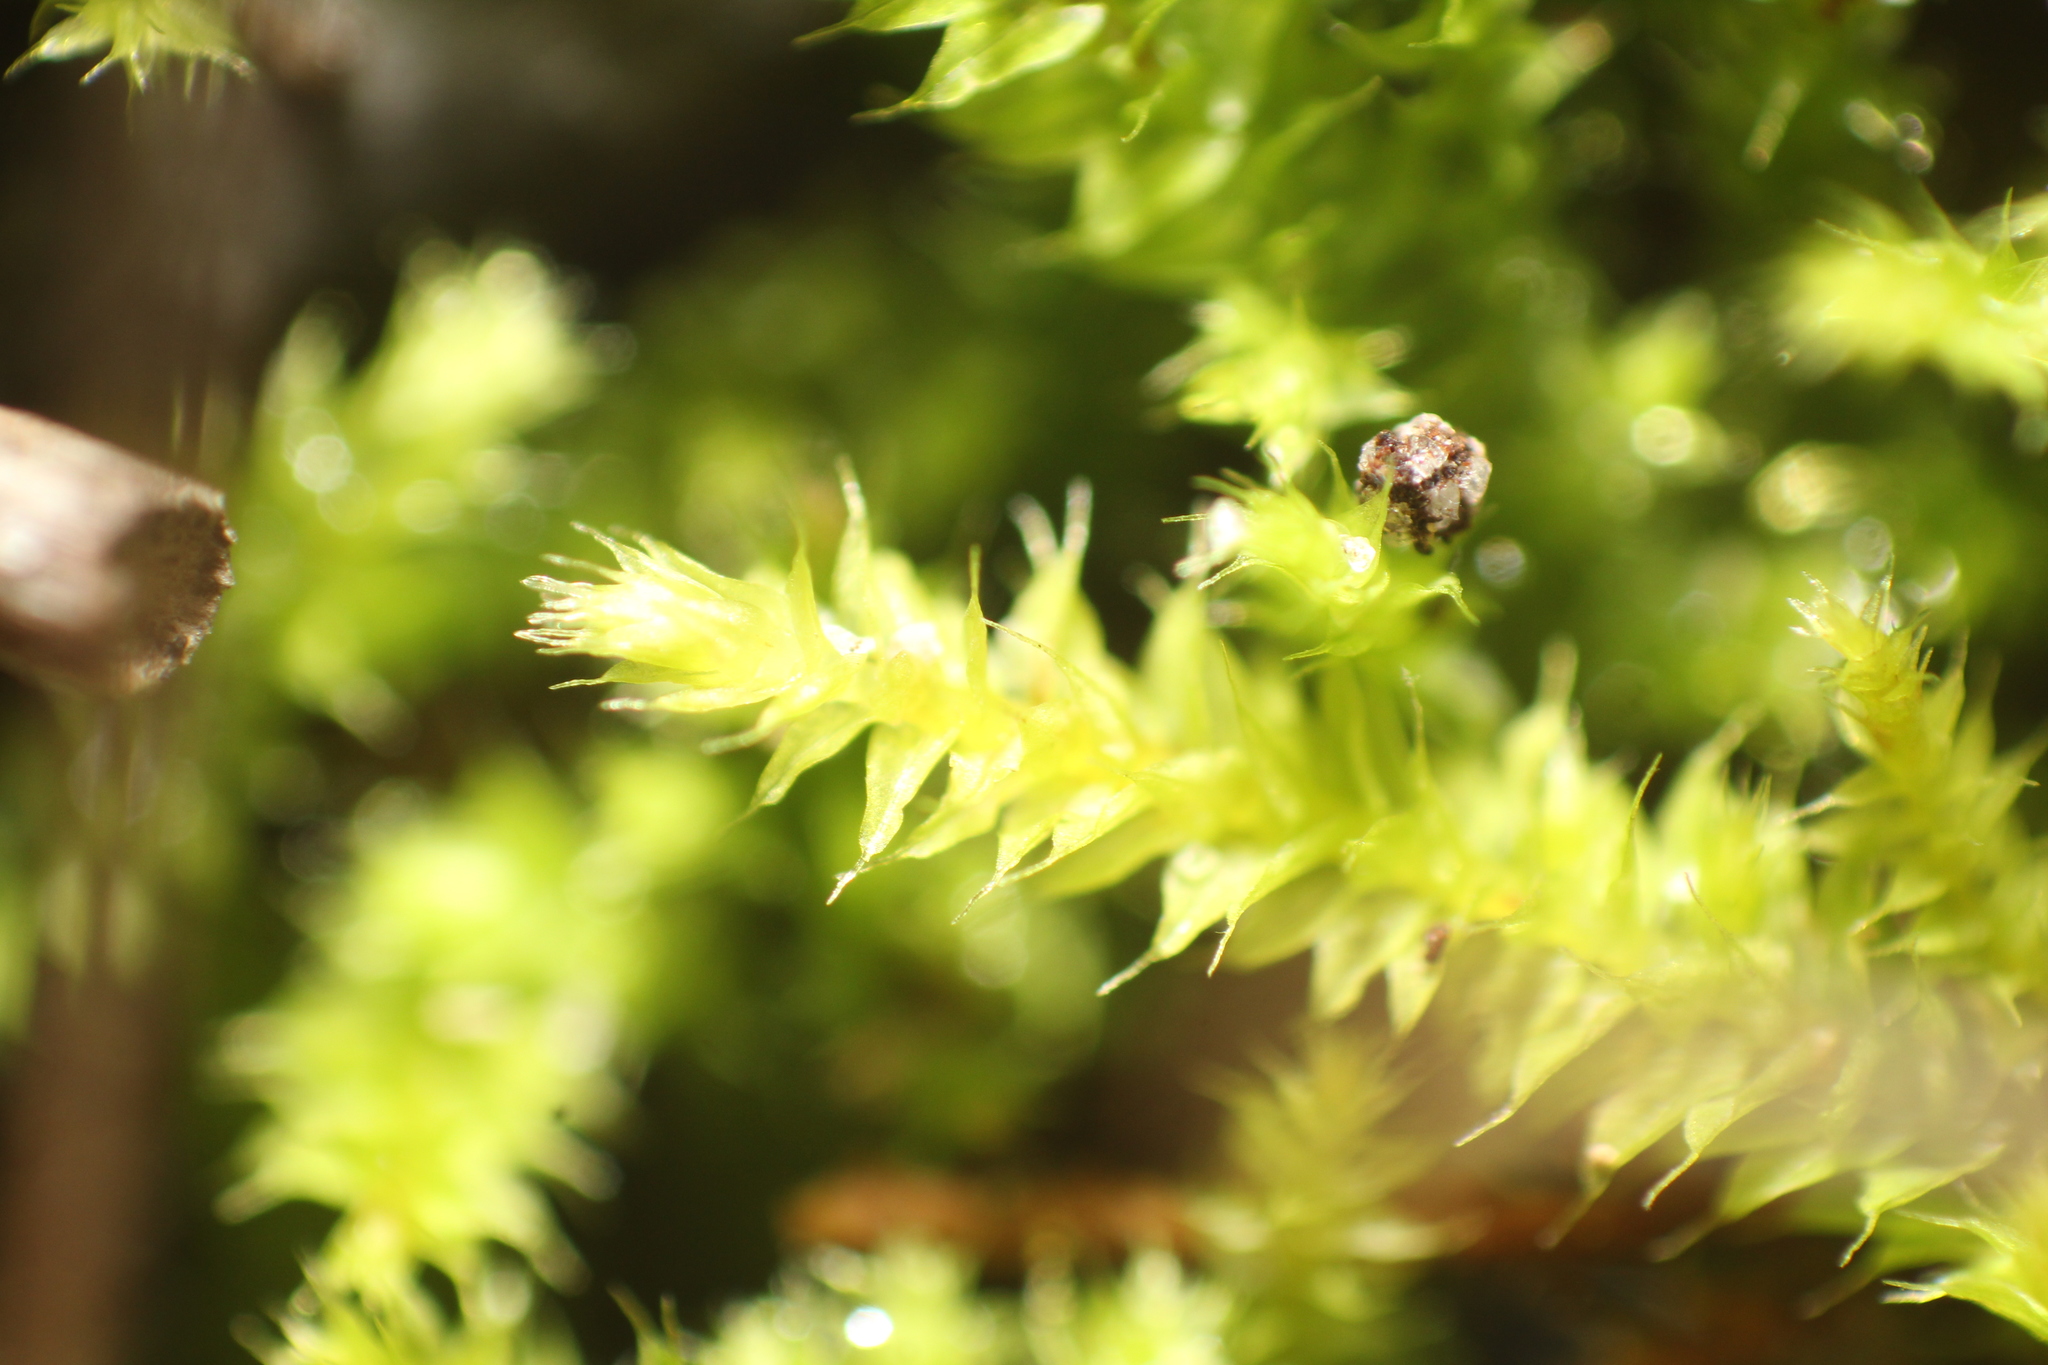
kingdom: Plantae
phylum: Bryophyta
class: Bryopsida
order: Hypnodendrales
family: Racopilaceae
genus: Racopilum
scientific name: Racopilum cuspidigerum
